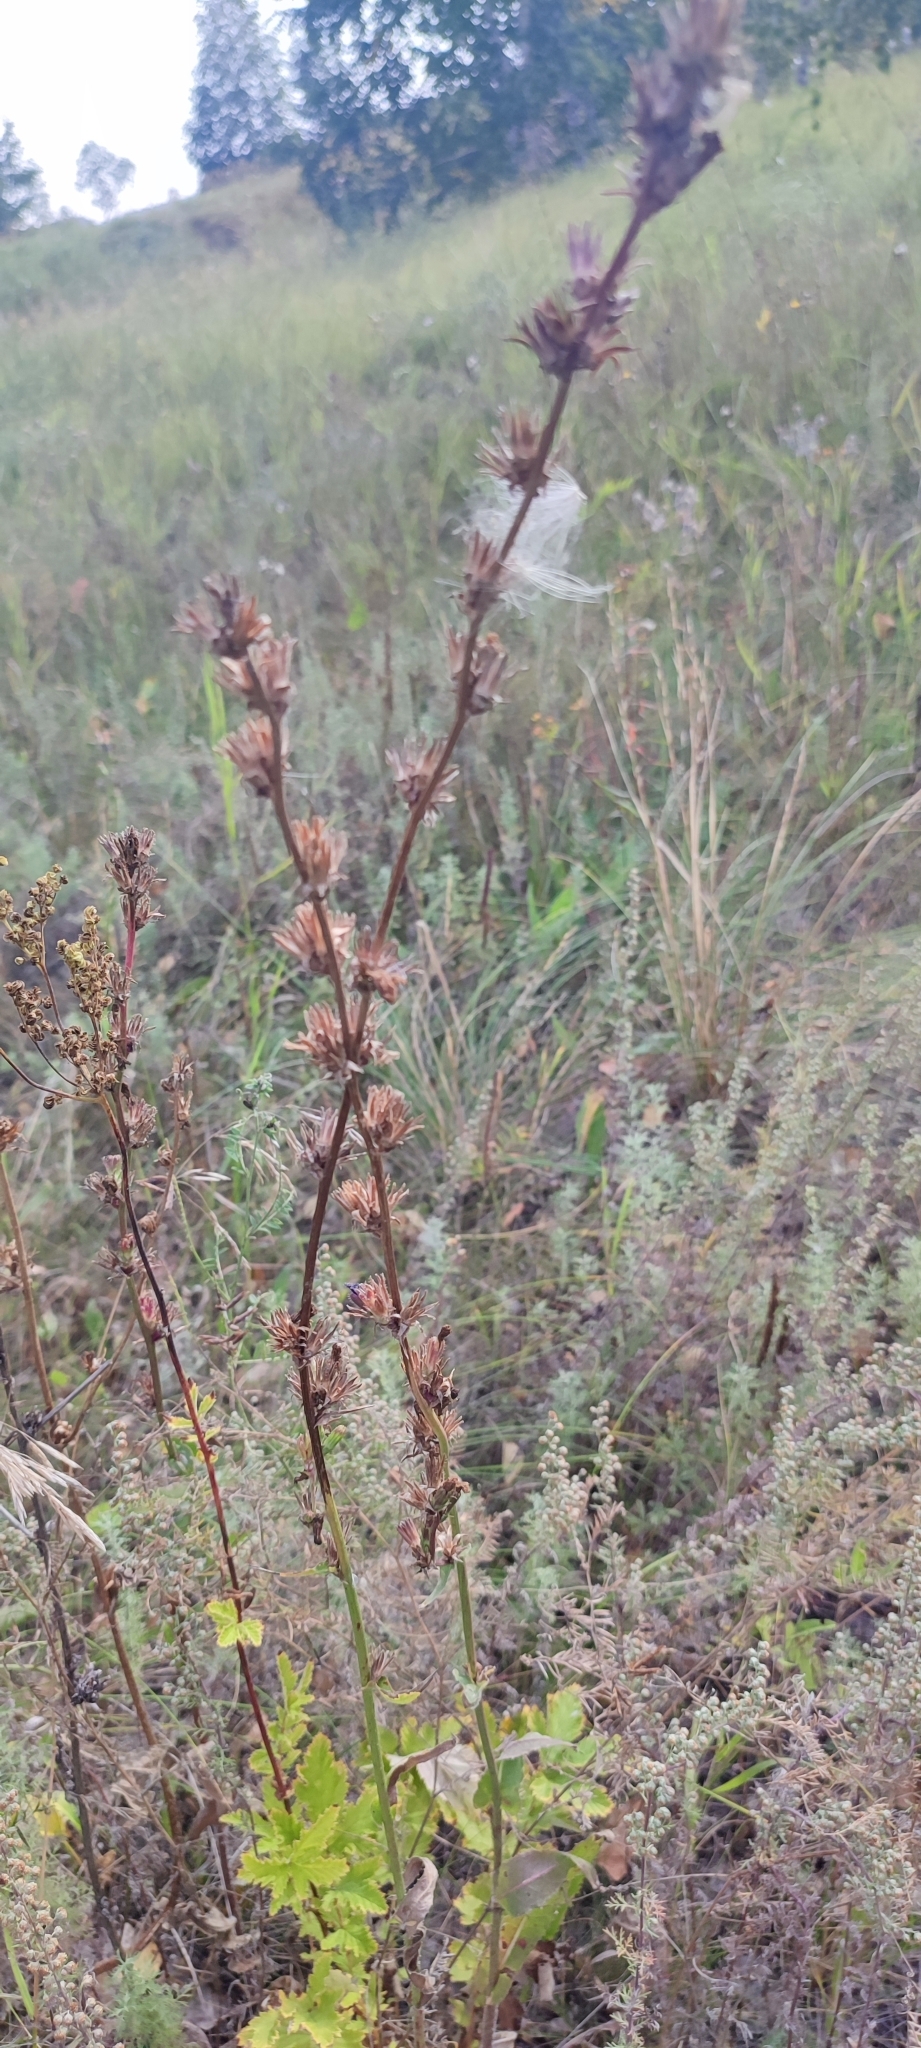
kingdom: Plantae
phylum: Tracheophyta
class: Magnoliopsida
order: Asterales
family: Asteraceae
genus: Cichorium
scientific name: Cichorium intybus
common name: Chicory
